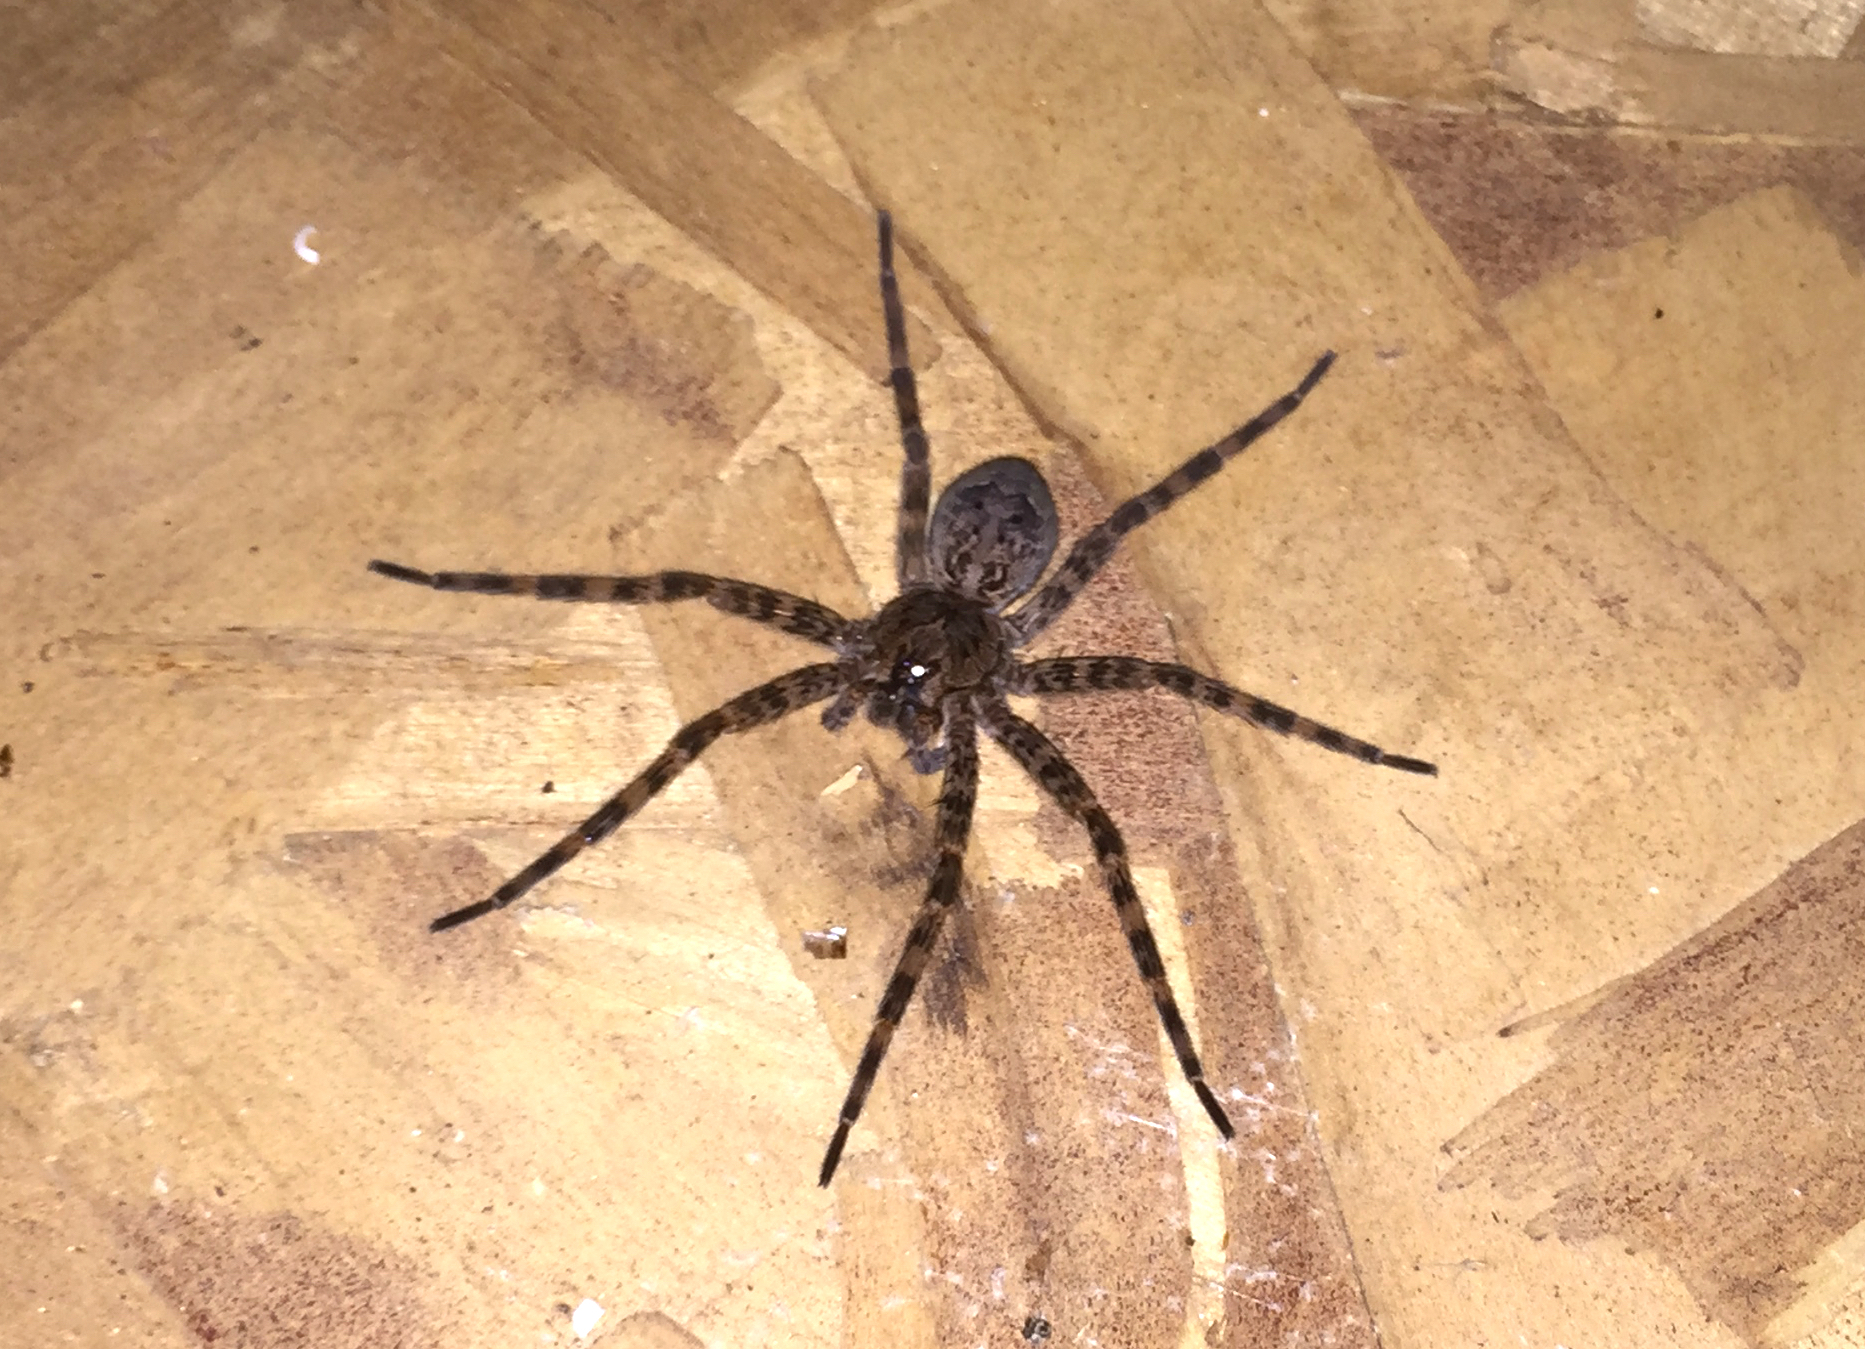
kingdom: Animalia
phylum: Arthropoda
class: Arachnida
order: Araneae
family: Pisauridae
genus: Dolomedes
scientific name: Dolomedes tenebrosus
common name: Dark fishing spider
